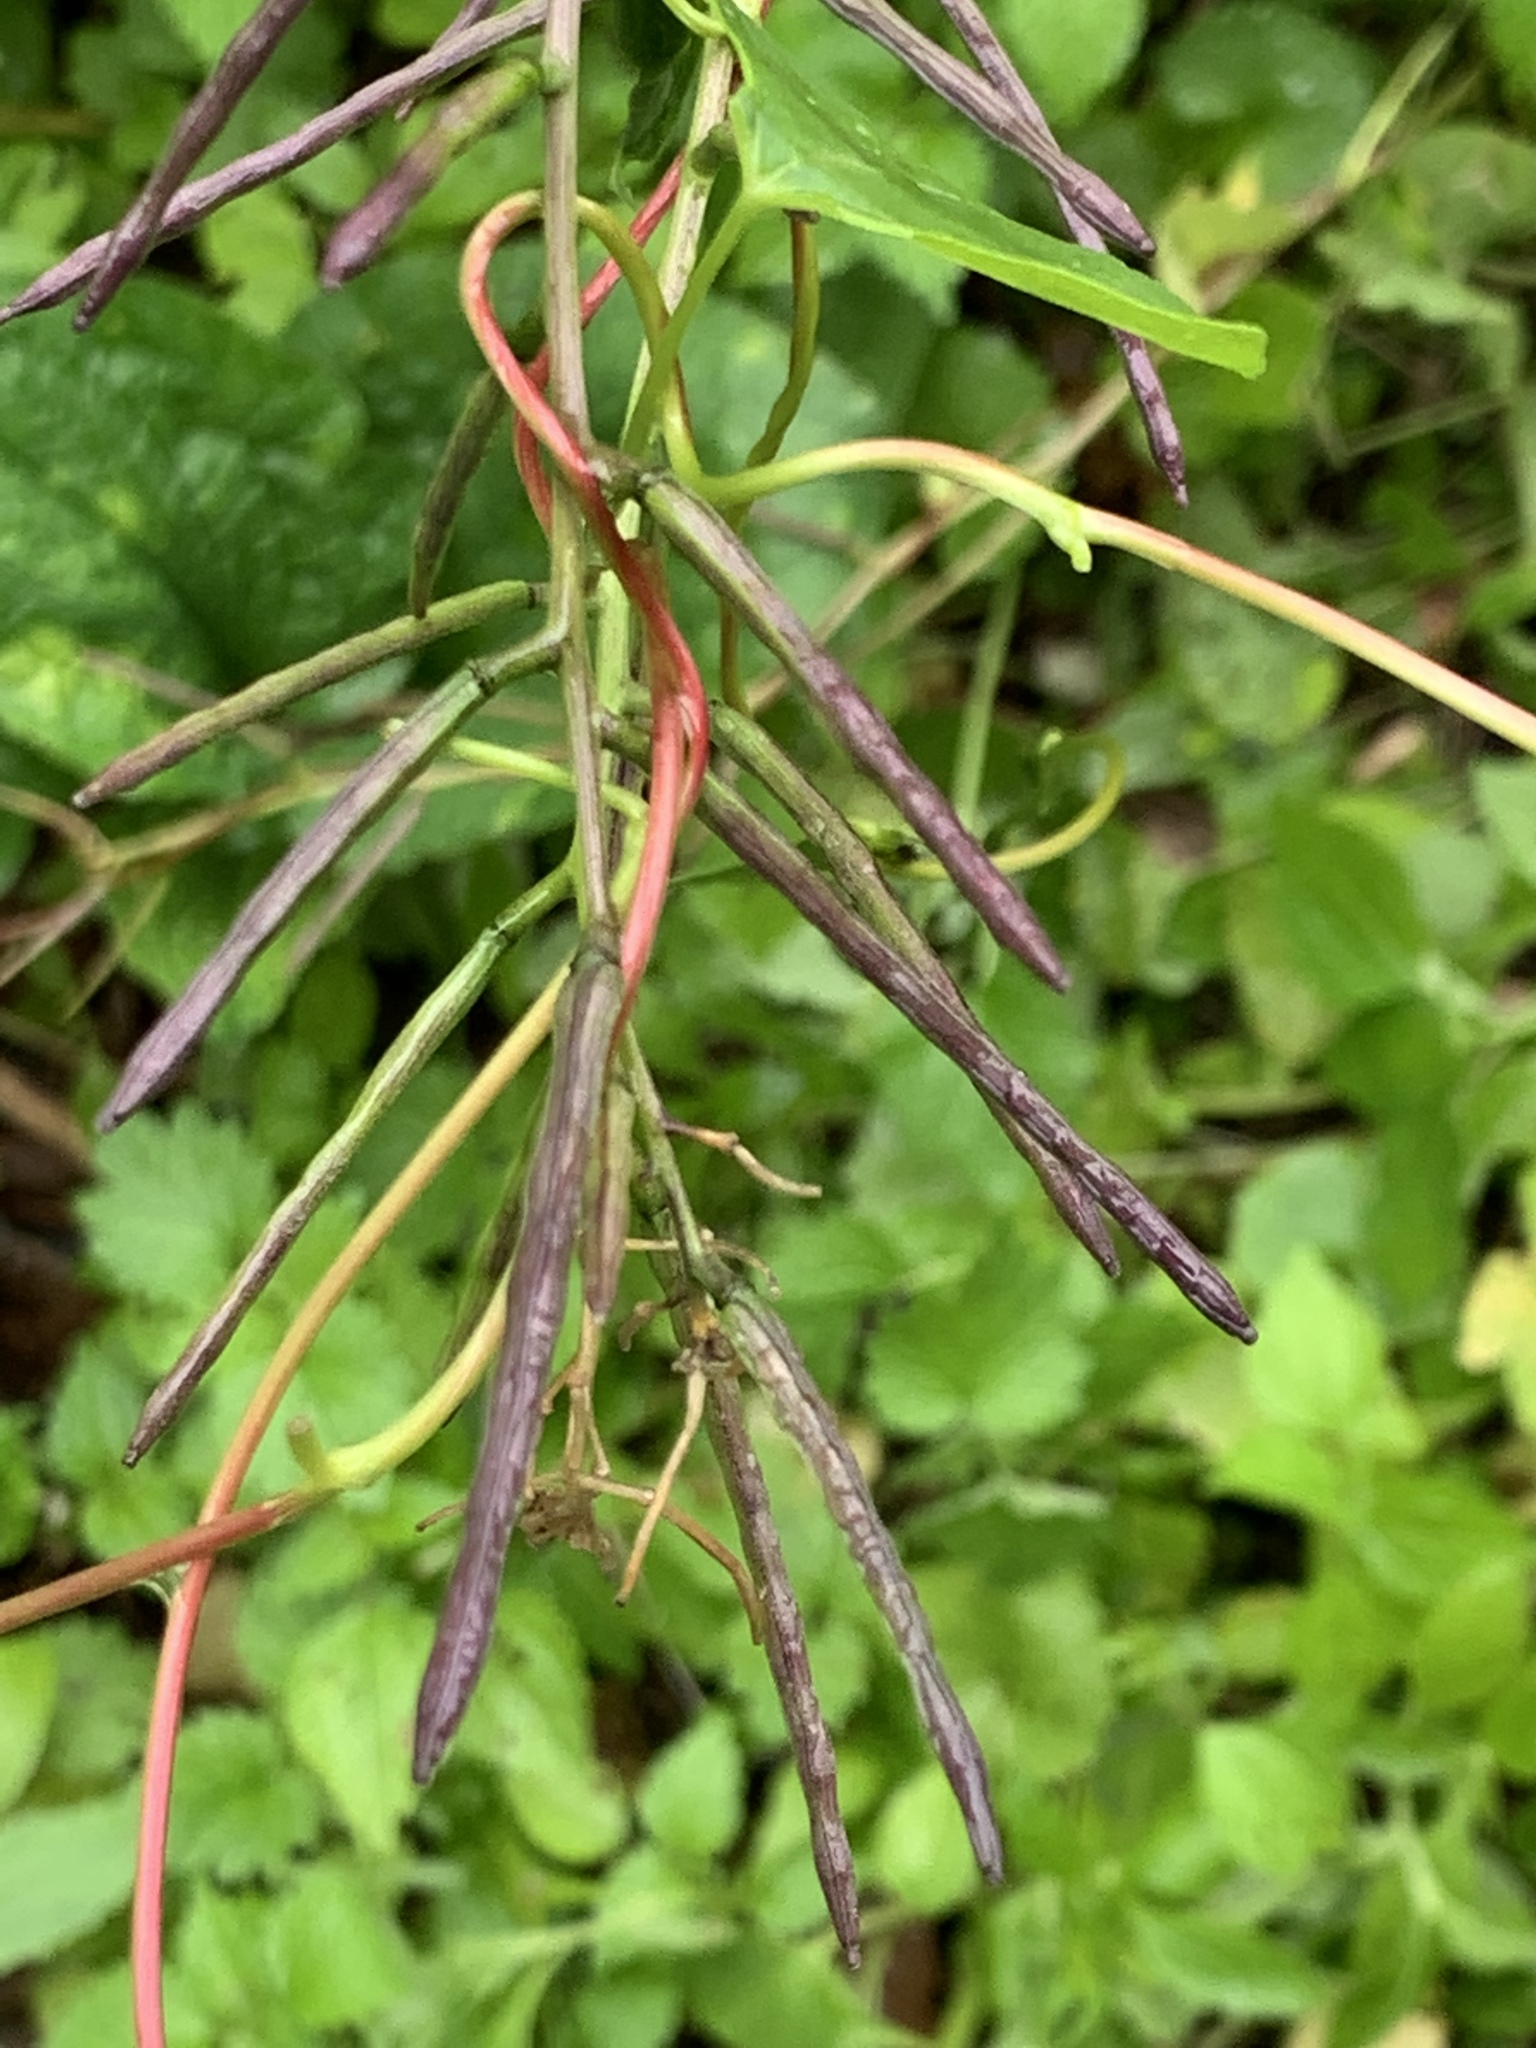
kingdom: Plantae
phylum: Tracheophyta
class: Magnoliopsida
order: Brassicales
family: Brassicaceae
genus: Alliaria
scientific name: Alliaria petiolata
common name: Garlic mustard
